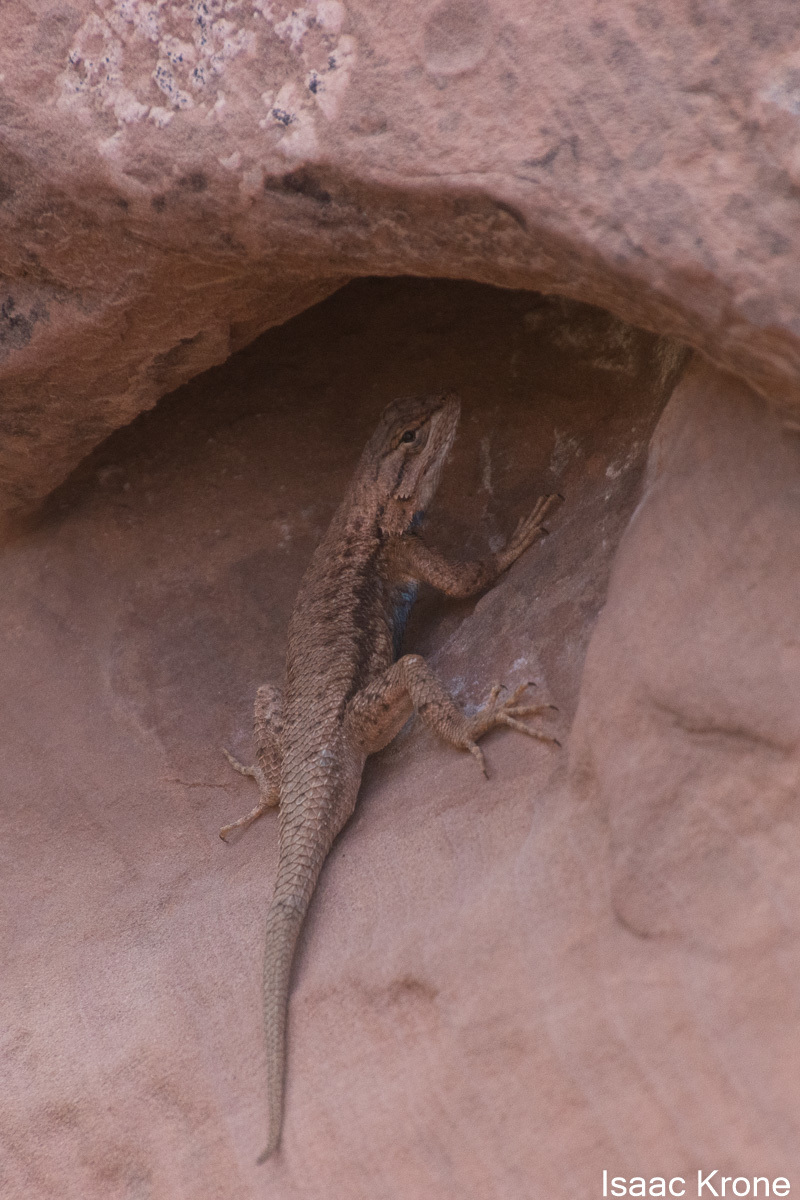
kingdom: Animalia
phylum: Chordata
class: Squamata
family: Phrynosomatidae
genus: Sceloporus
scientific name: Sceloporus tristichus
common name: Plateau fence lizard
